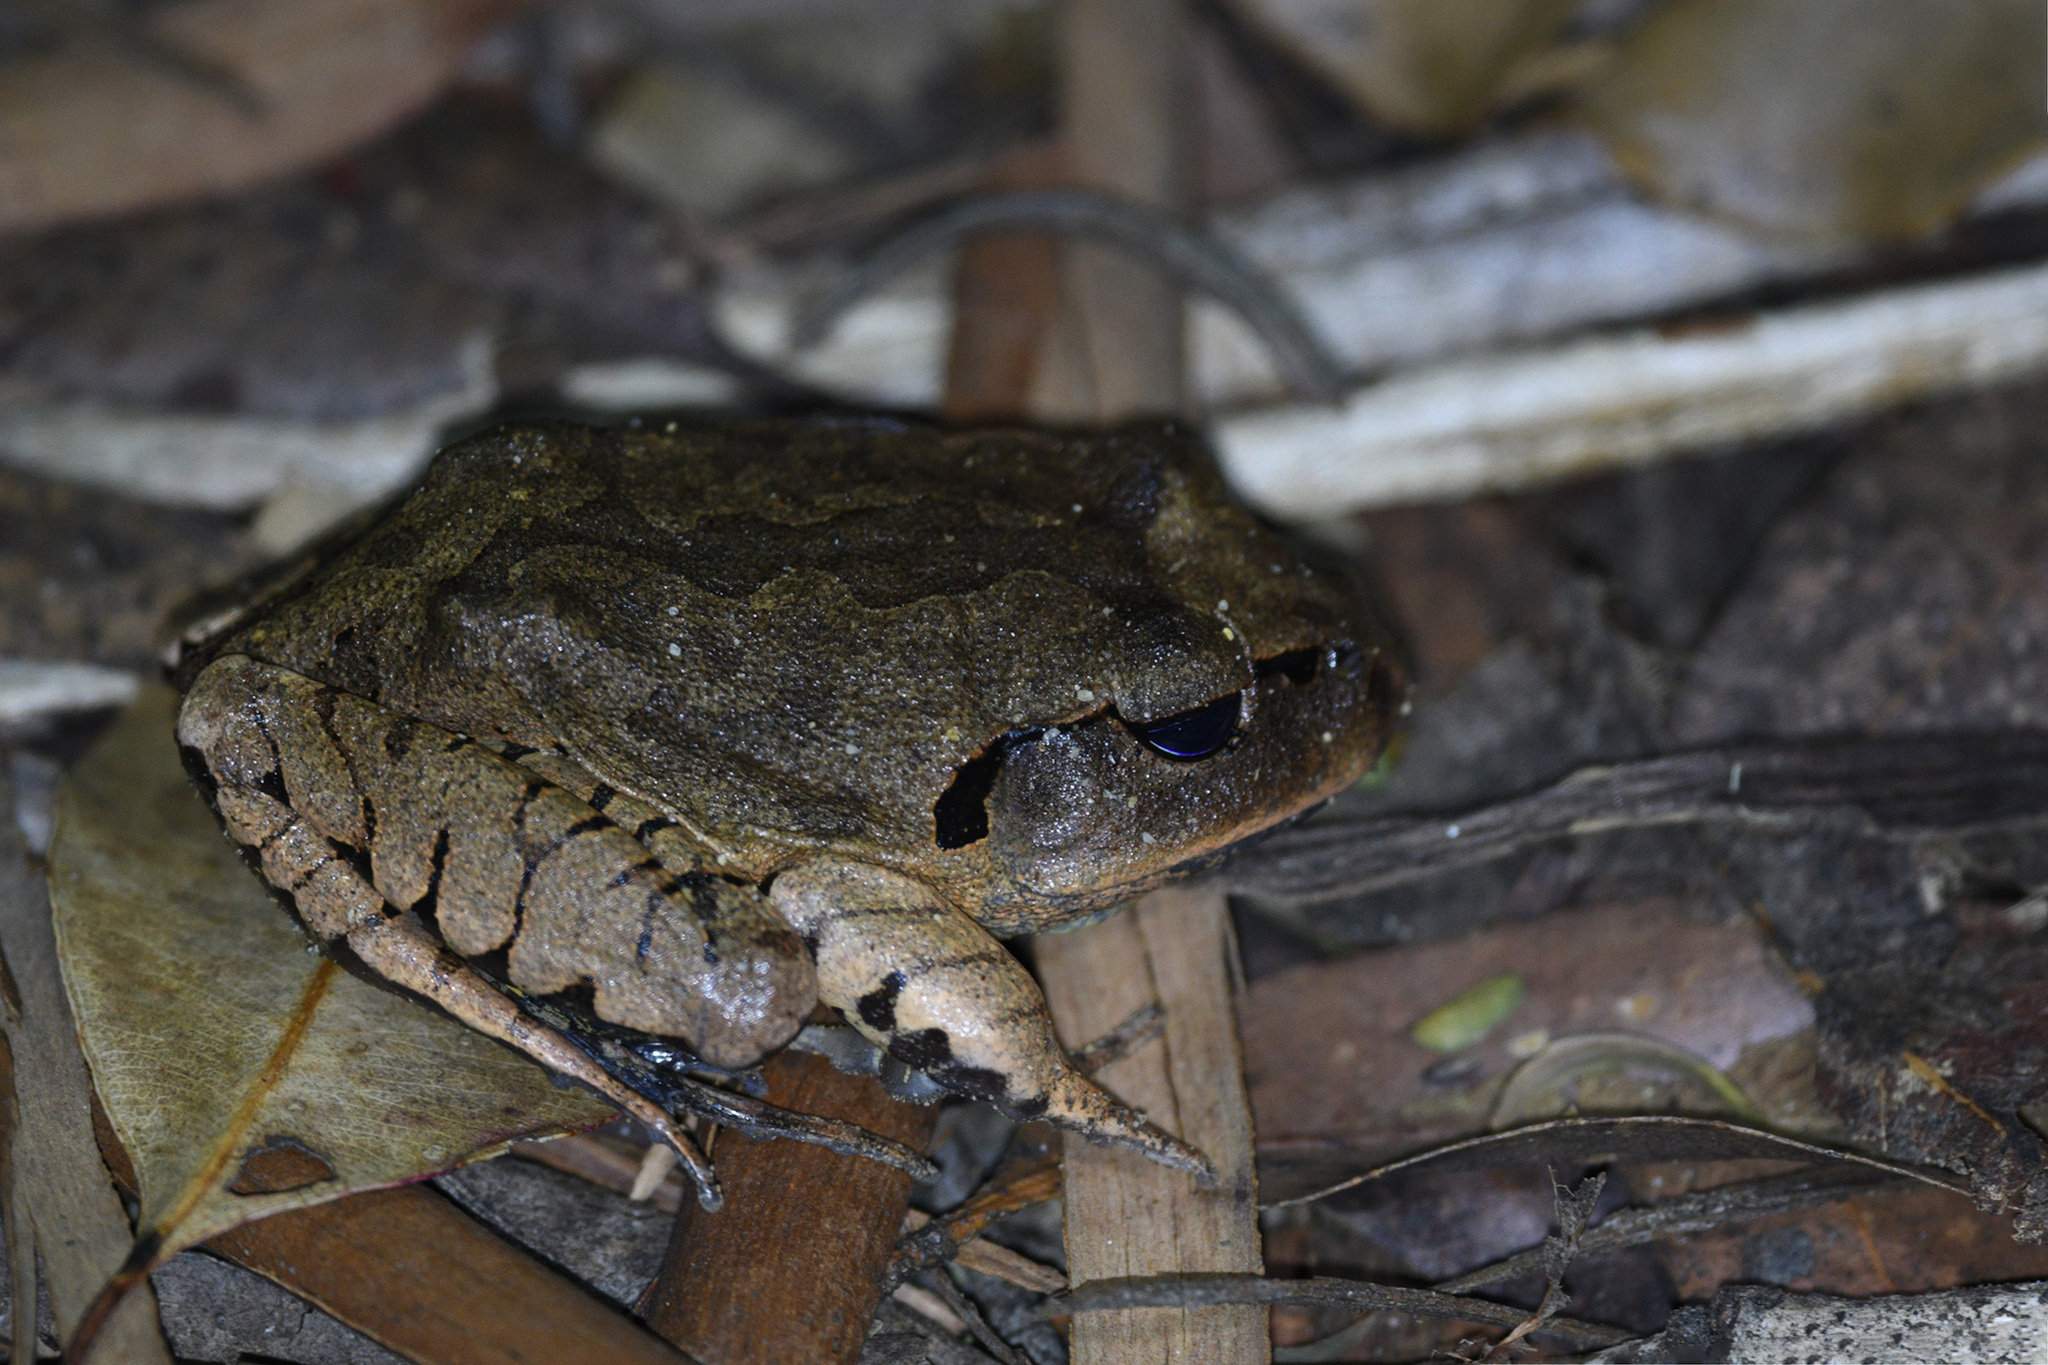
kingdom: Animalia
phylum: Chordata
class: Amphibia
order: Anura
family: Myobatrachidae
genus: Mixophyes
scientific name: Mixophyes fasciolatus
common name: Great barred river-frog
